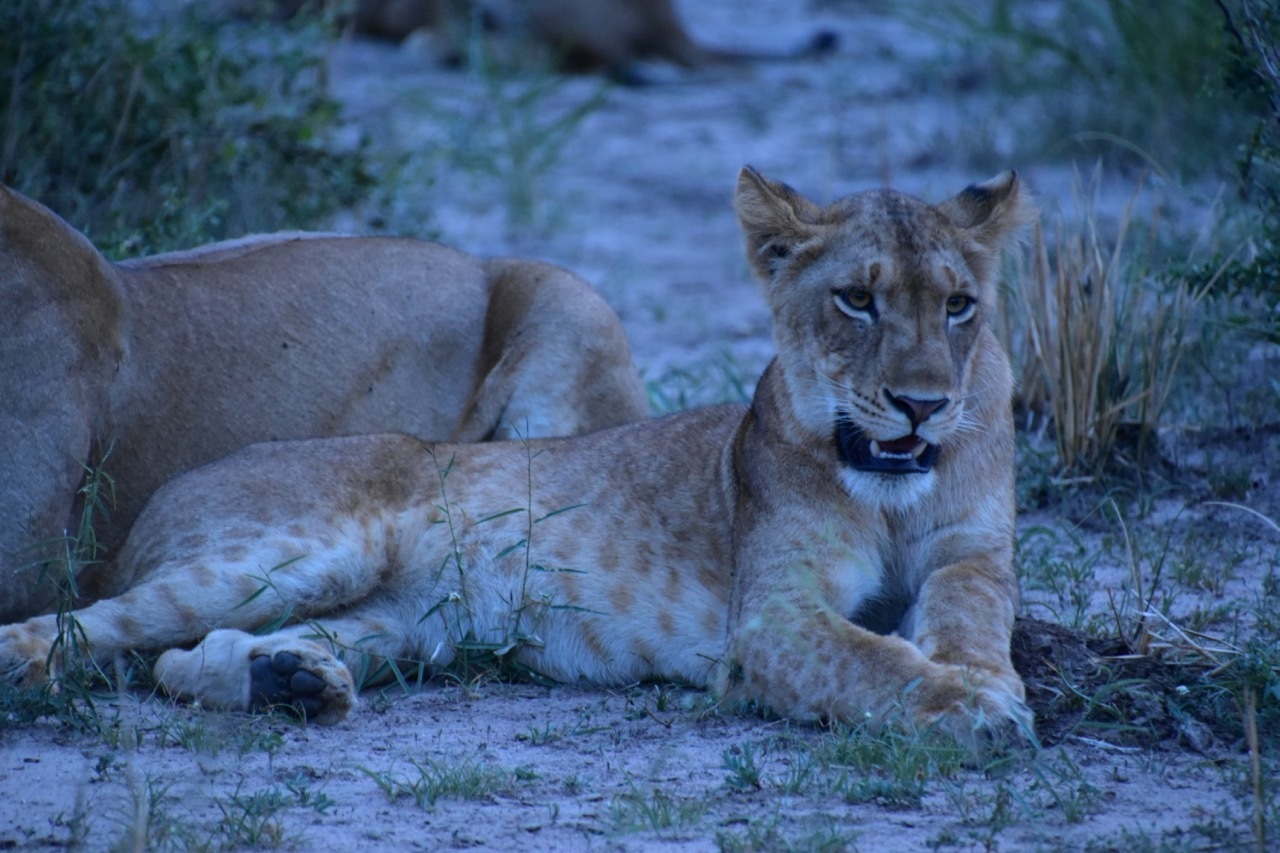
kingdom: Animalia
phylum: Chordata
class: Mammalia
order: Carnivora
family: Felidae
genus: Panthera
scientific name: Panthera leo
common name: Lion
